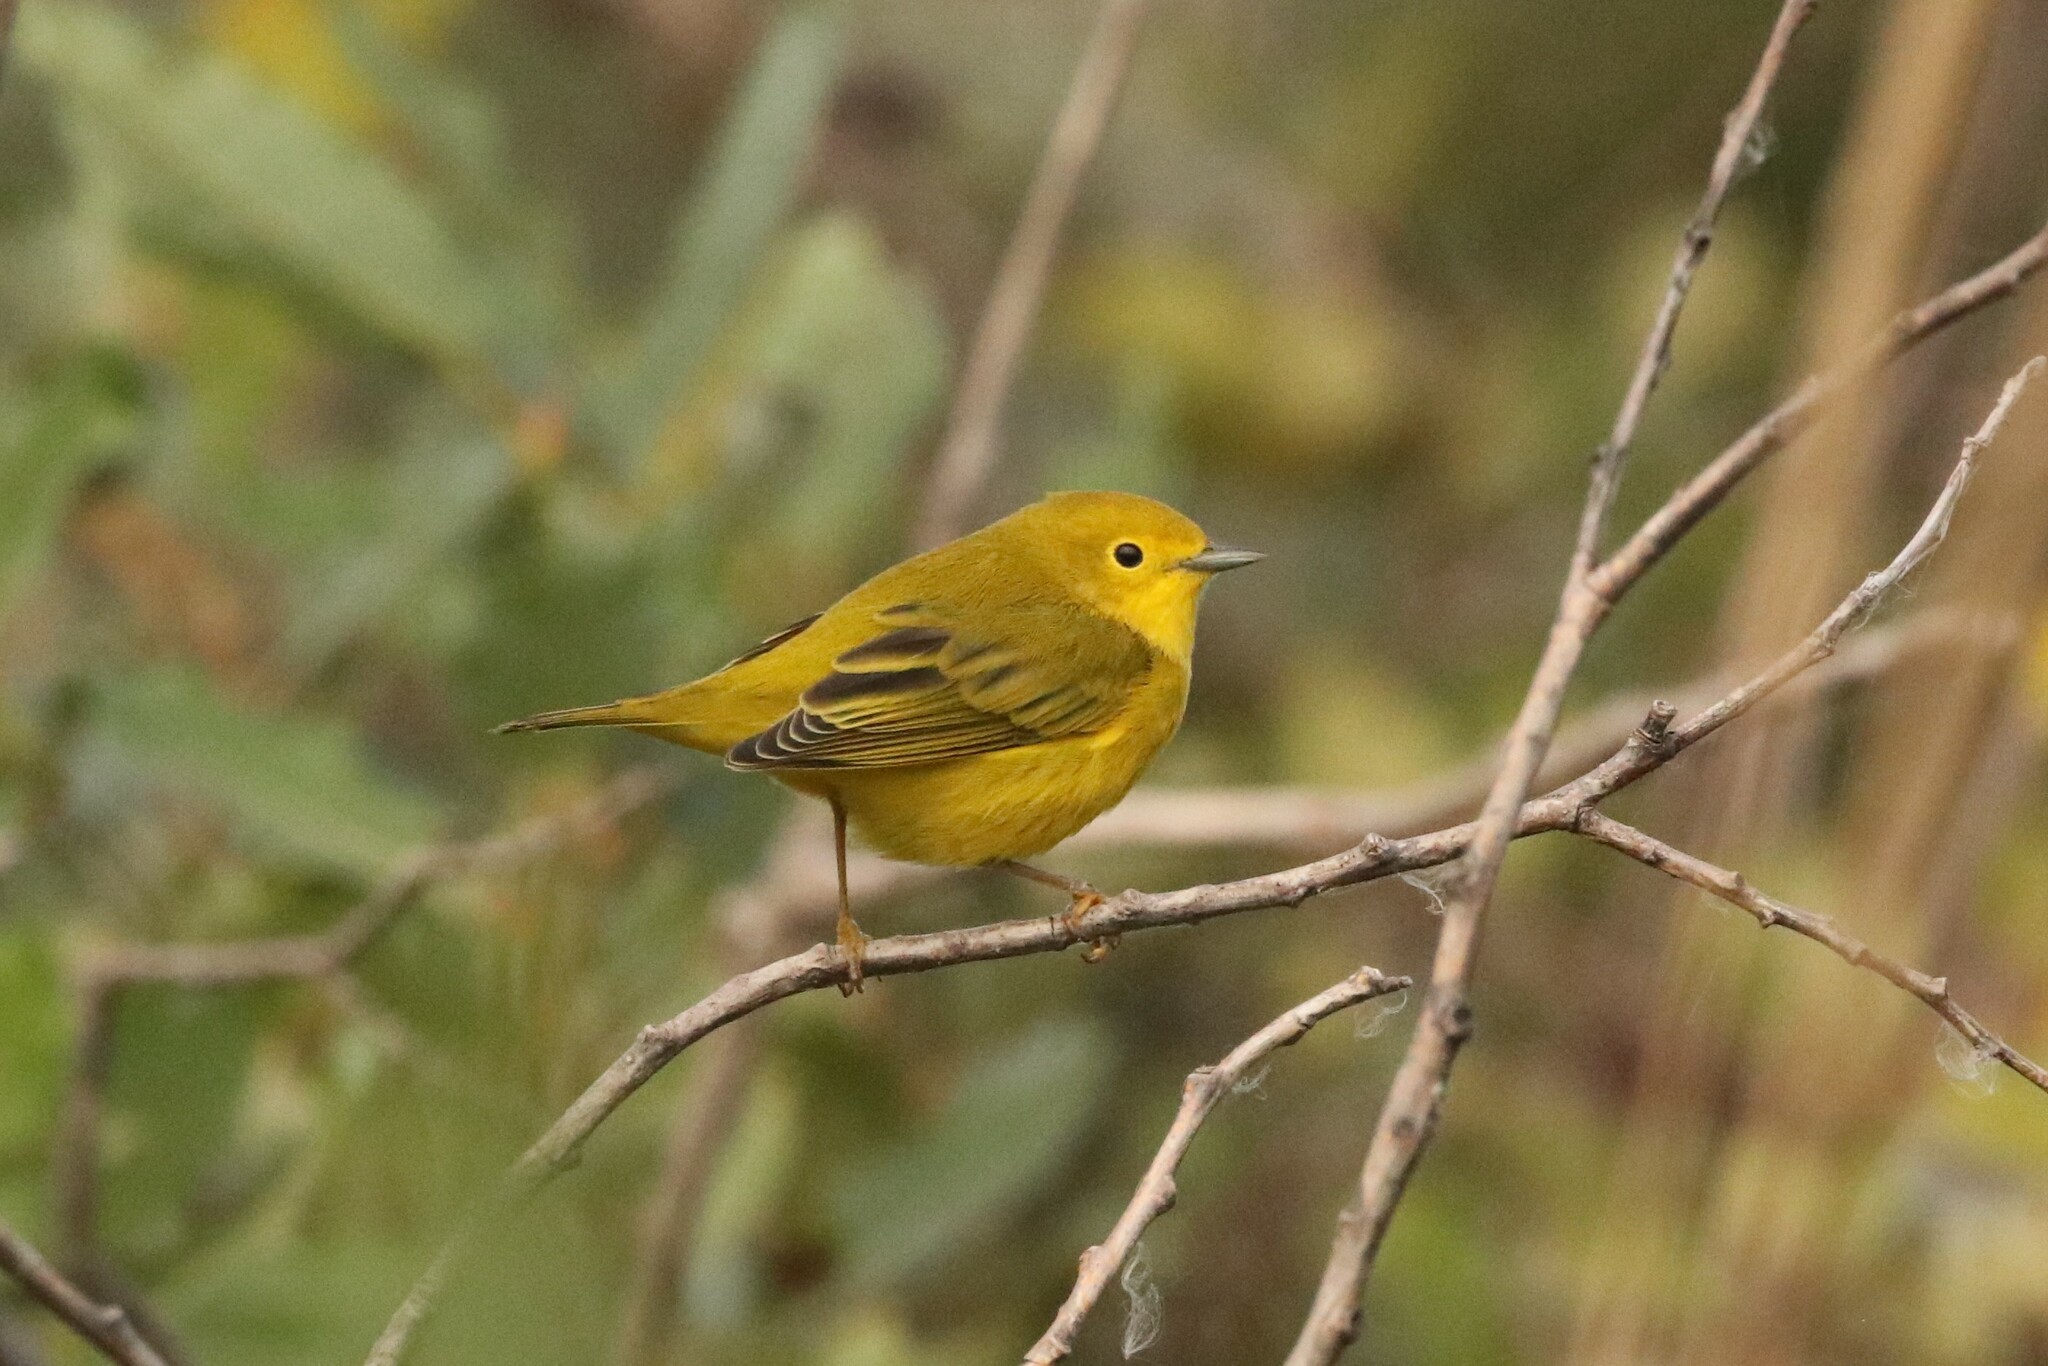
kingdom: Animalia
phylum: Chordata
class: Aves
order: Passeriformes
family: Parulidae
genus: Setophaga
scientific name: Setophaga petechia
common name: Yellow warbler
